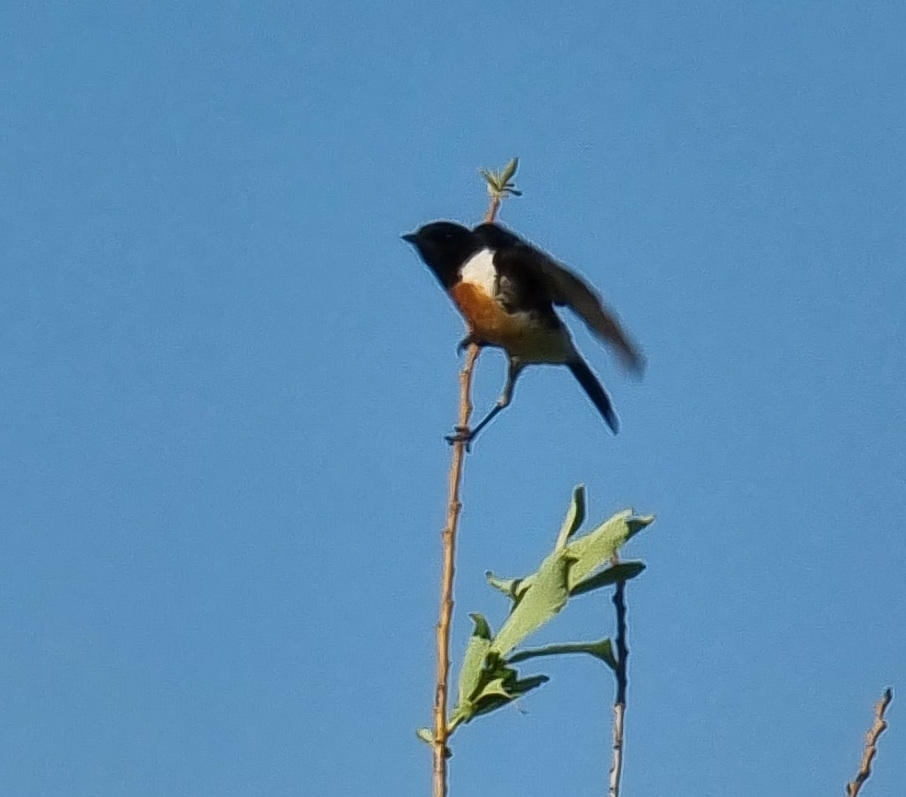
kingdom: Animalia
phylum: Chordata
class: Aves
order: Passeriformes
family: Muscicapidae
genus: Saxicola
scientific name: Saxicola maurus
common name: Siberian stonechat
